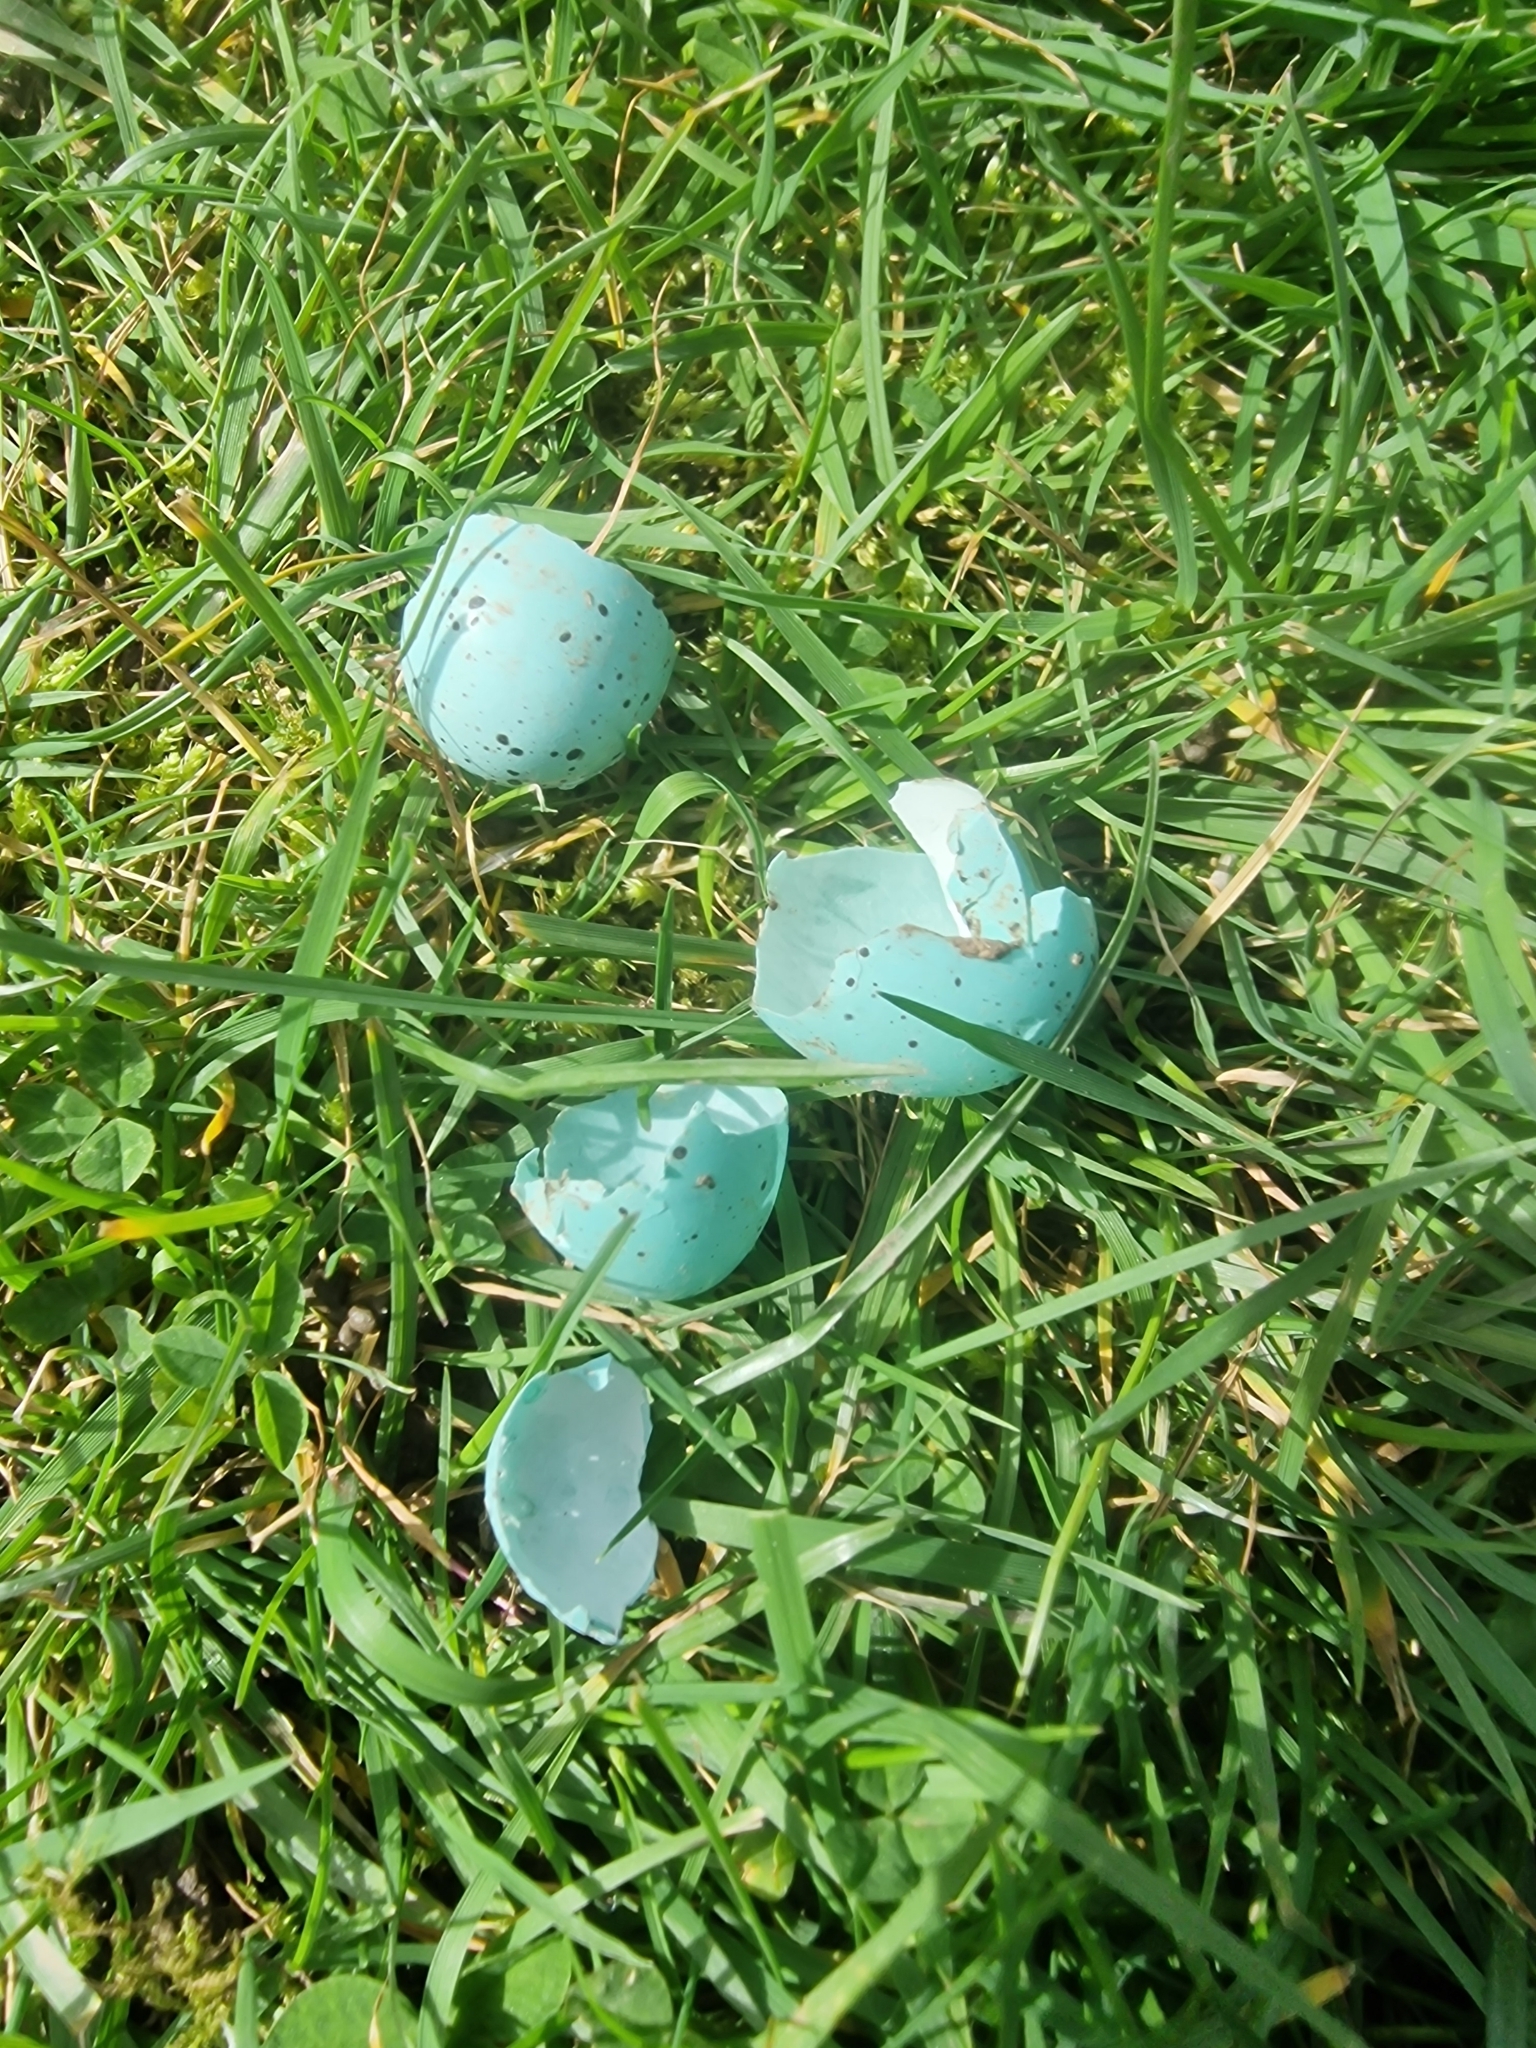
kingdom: Animalia
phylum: Chordata
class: Aves
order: Passeriformes
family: Turdidae
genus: Turdus
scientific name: Turdus philomelos
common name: Song thrush
